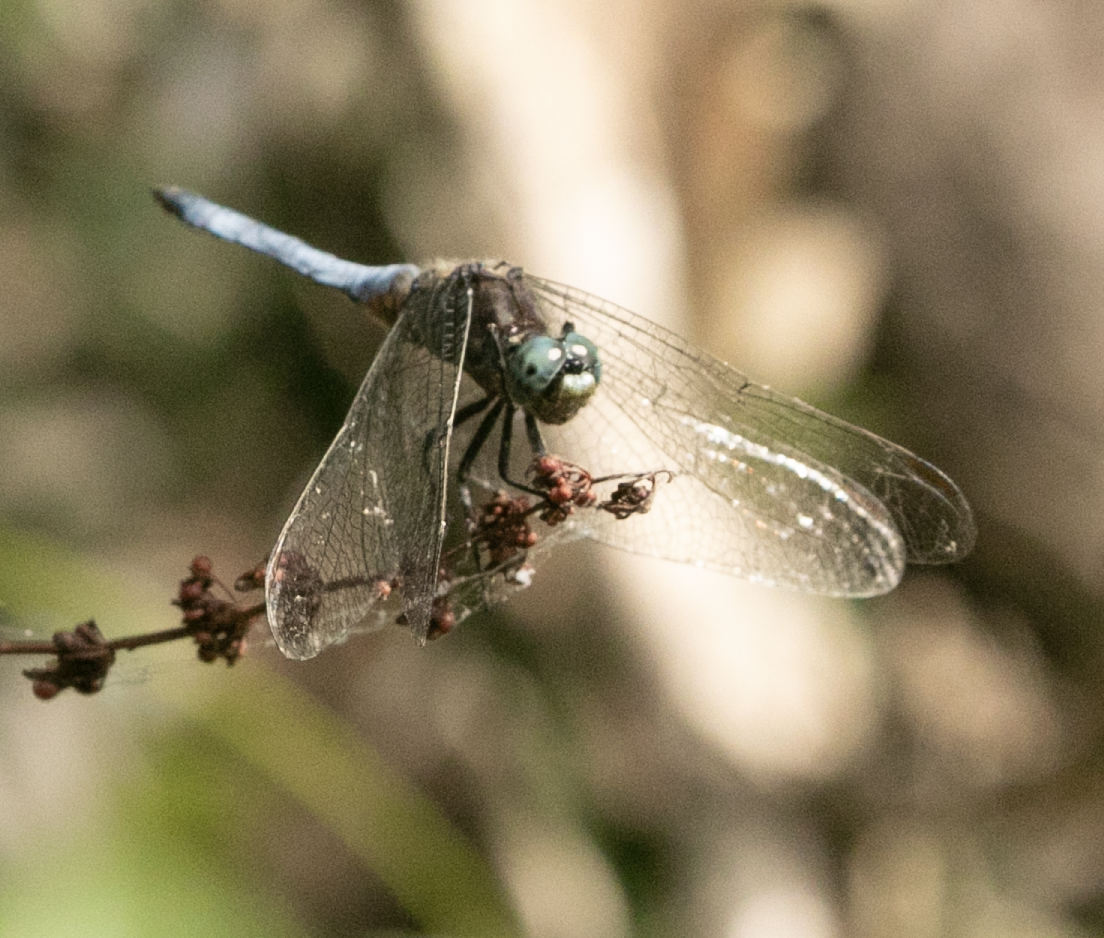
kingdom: Animalia
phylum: Arthropoda
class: Insecta
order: Odonata
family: Libellulidae
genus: Orthetrum
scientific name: Orthetrum coerulescens
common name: Keeled skimmer
